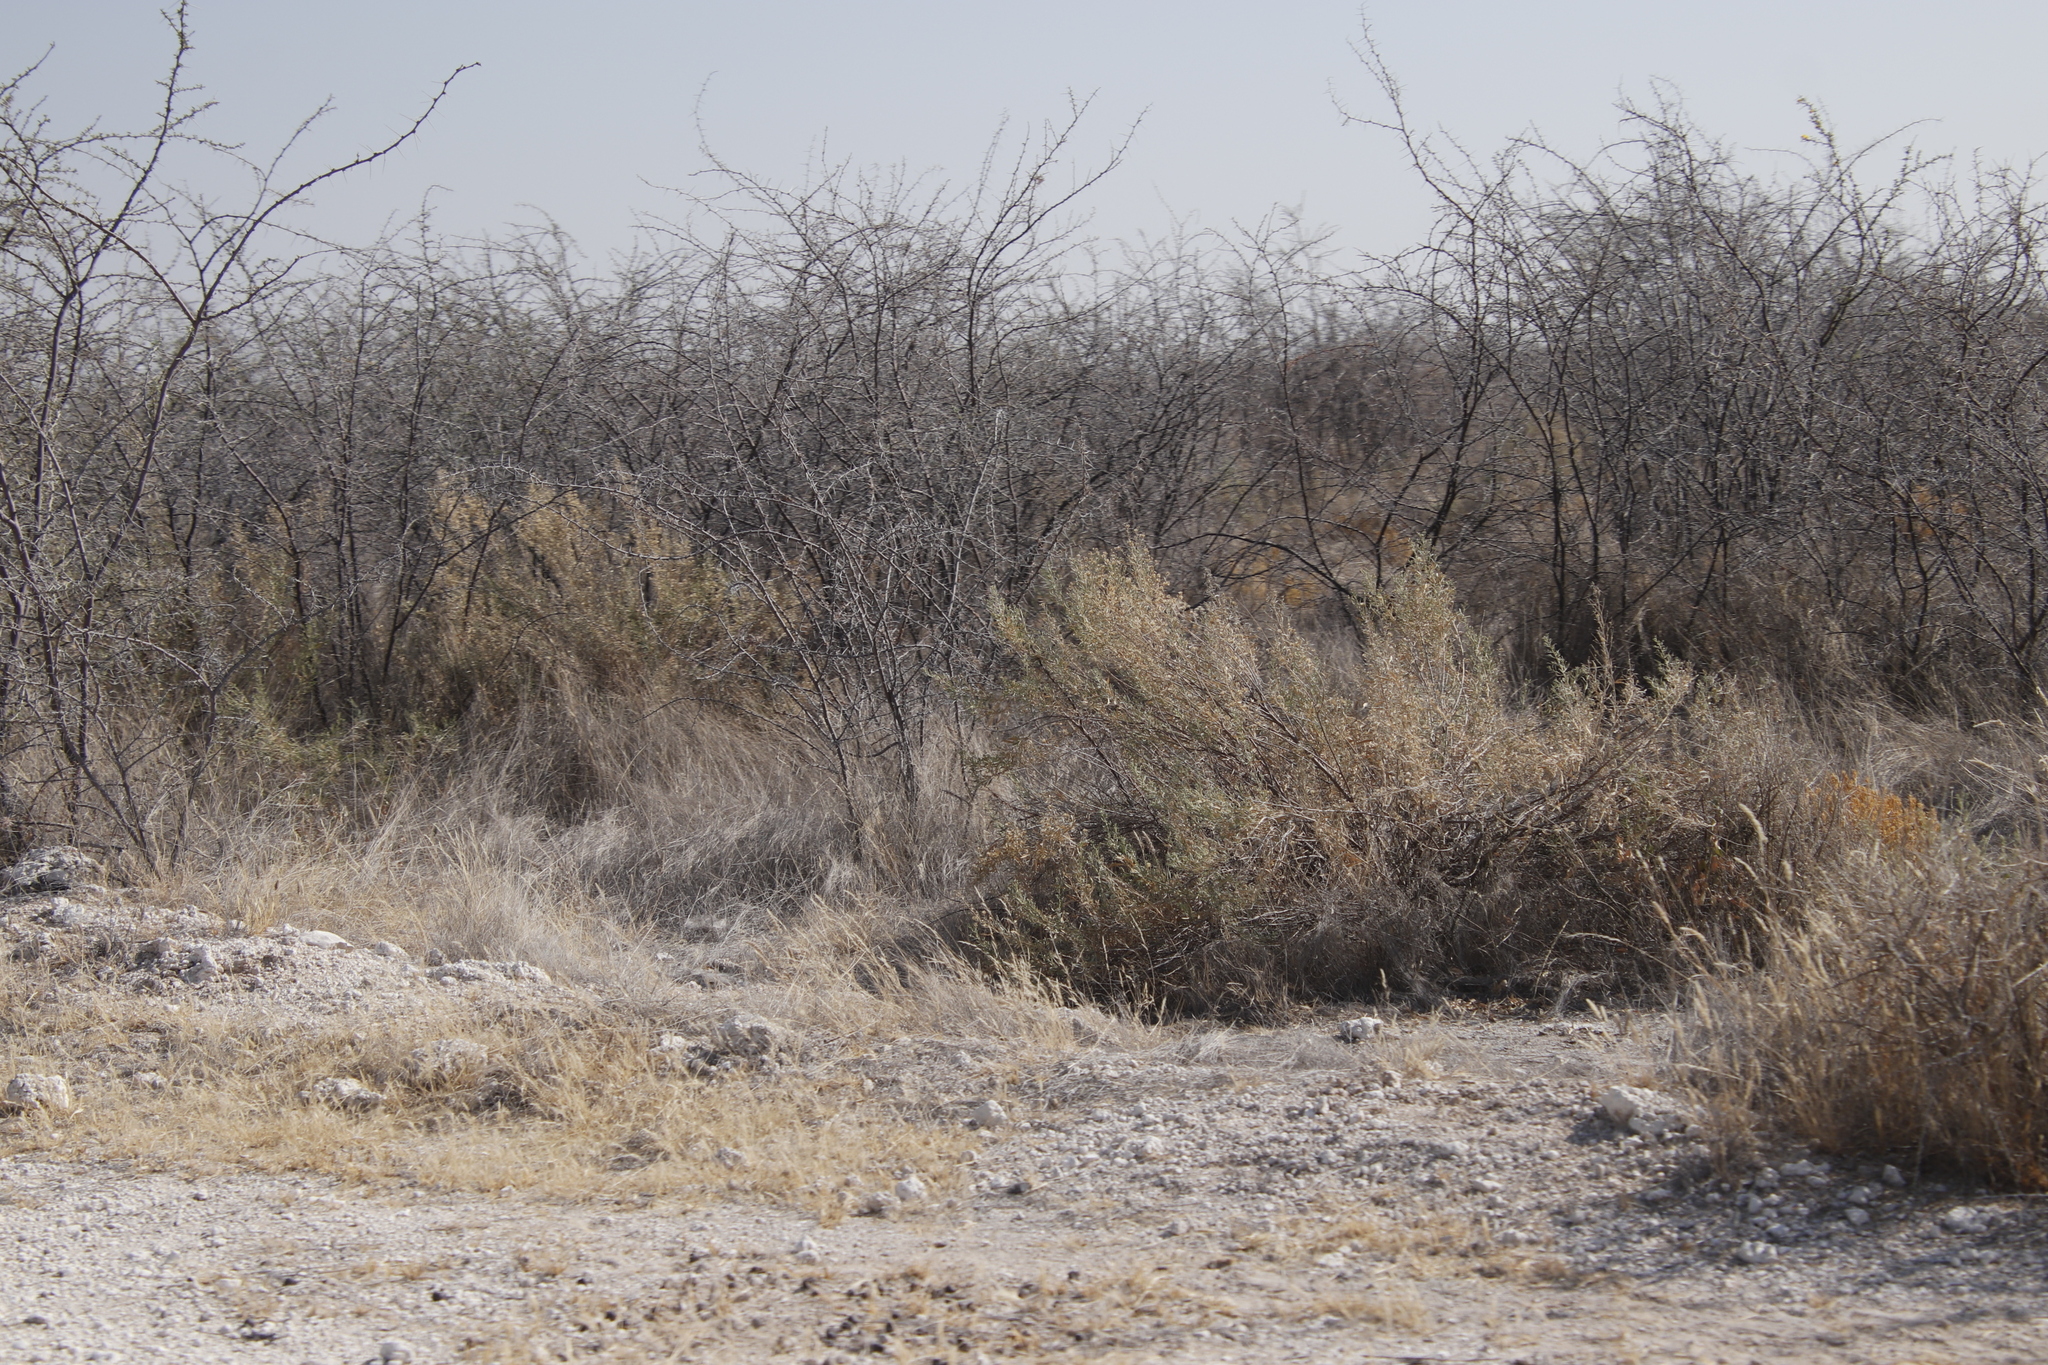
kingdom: Plantae
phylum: Tracheophyta
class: Magnoliopsida
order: Fabales
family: Fabaceae
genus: Vachellia
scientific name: Vachellia nebrownii
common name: Water acacia
